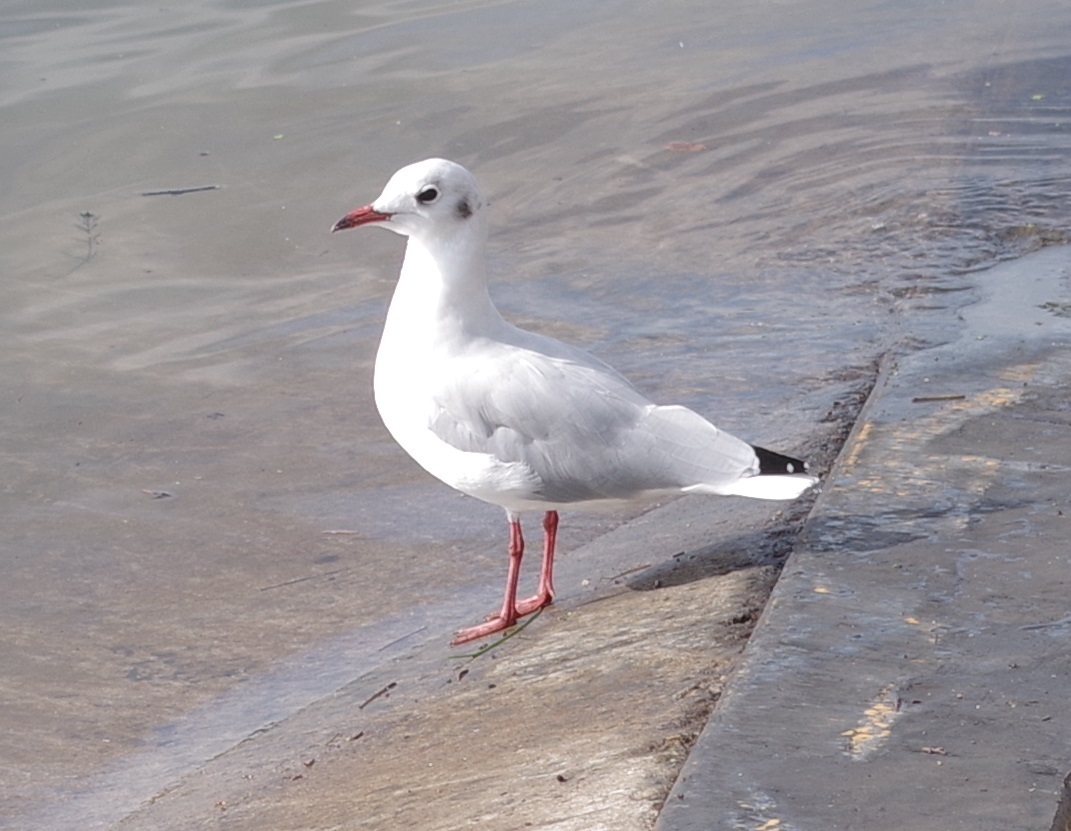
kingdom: Animalia
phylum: Chordata
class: Aves
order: Charadriiformes
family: Laridae
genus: Chroicocephalus
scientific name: Chroicocephalus ridibundus
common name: Black-headed gull
